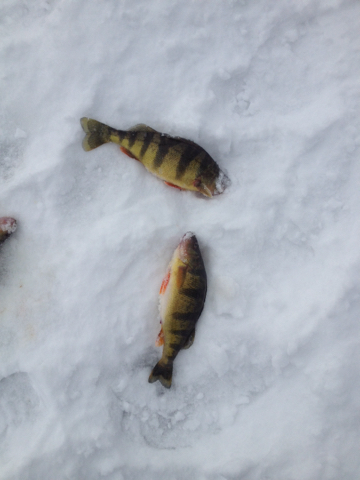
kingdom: Animalia
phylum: Chordata
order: Perciformes
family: Percidae
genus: Perca
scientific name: Perca flavescens
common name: Yellow perch
